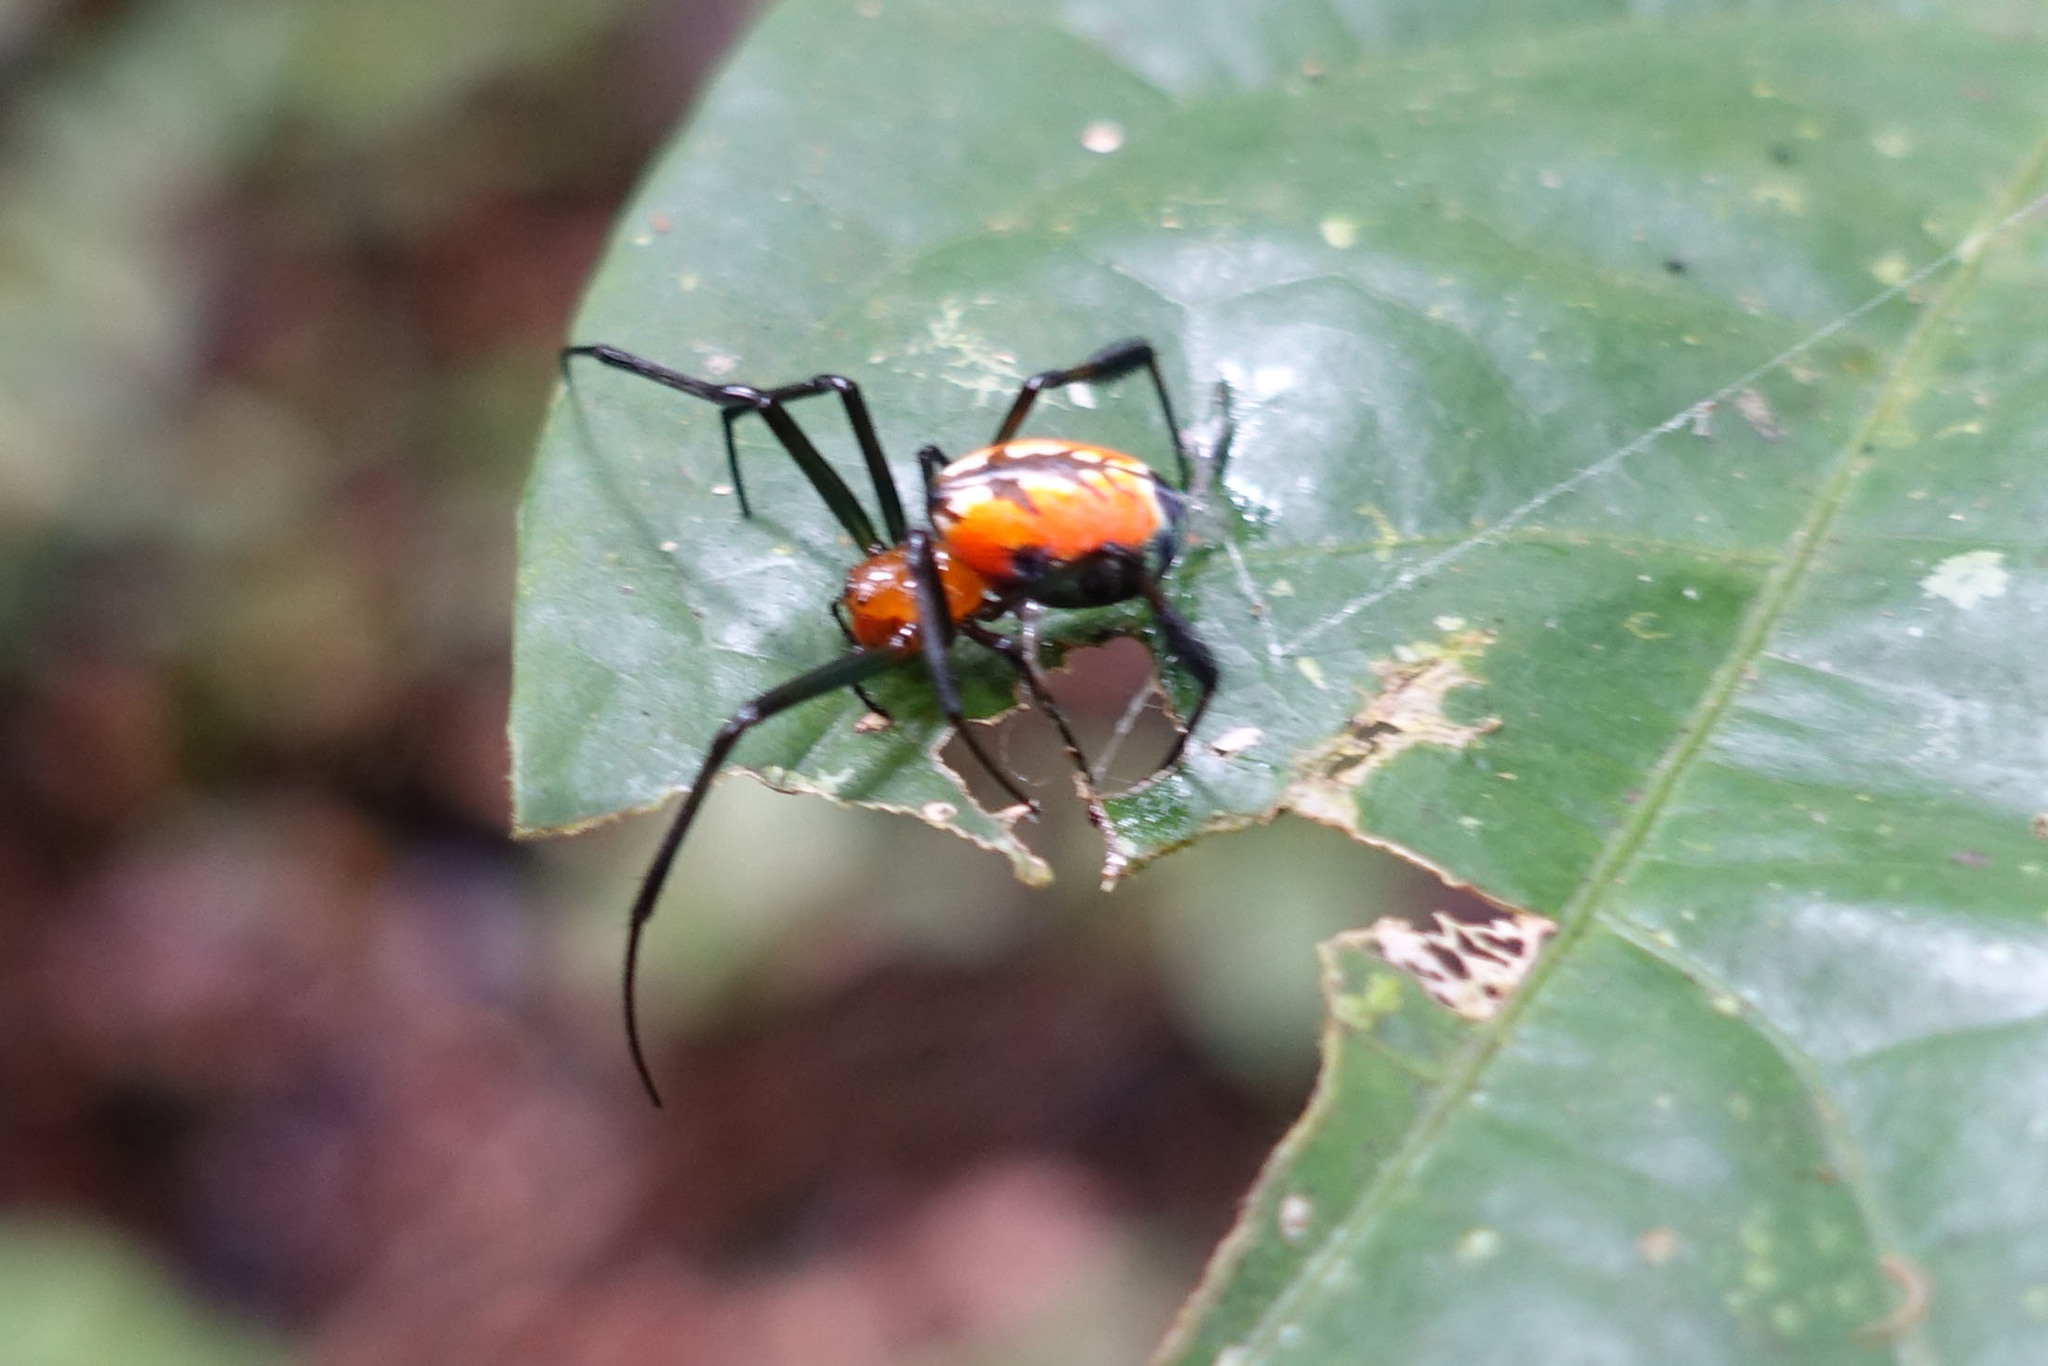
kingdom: Animalia
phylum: Arthropoda
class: Arachnida
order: Araneae
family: Tetragnathidae
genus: Leucauge
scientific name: Leucauge grata
